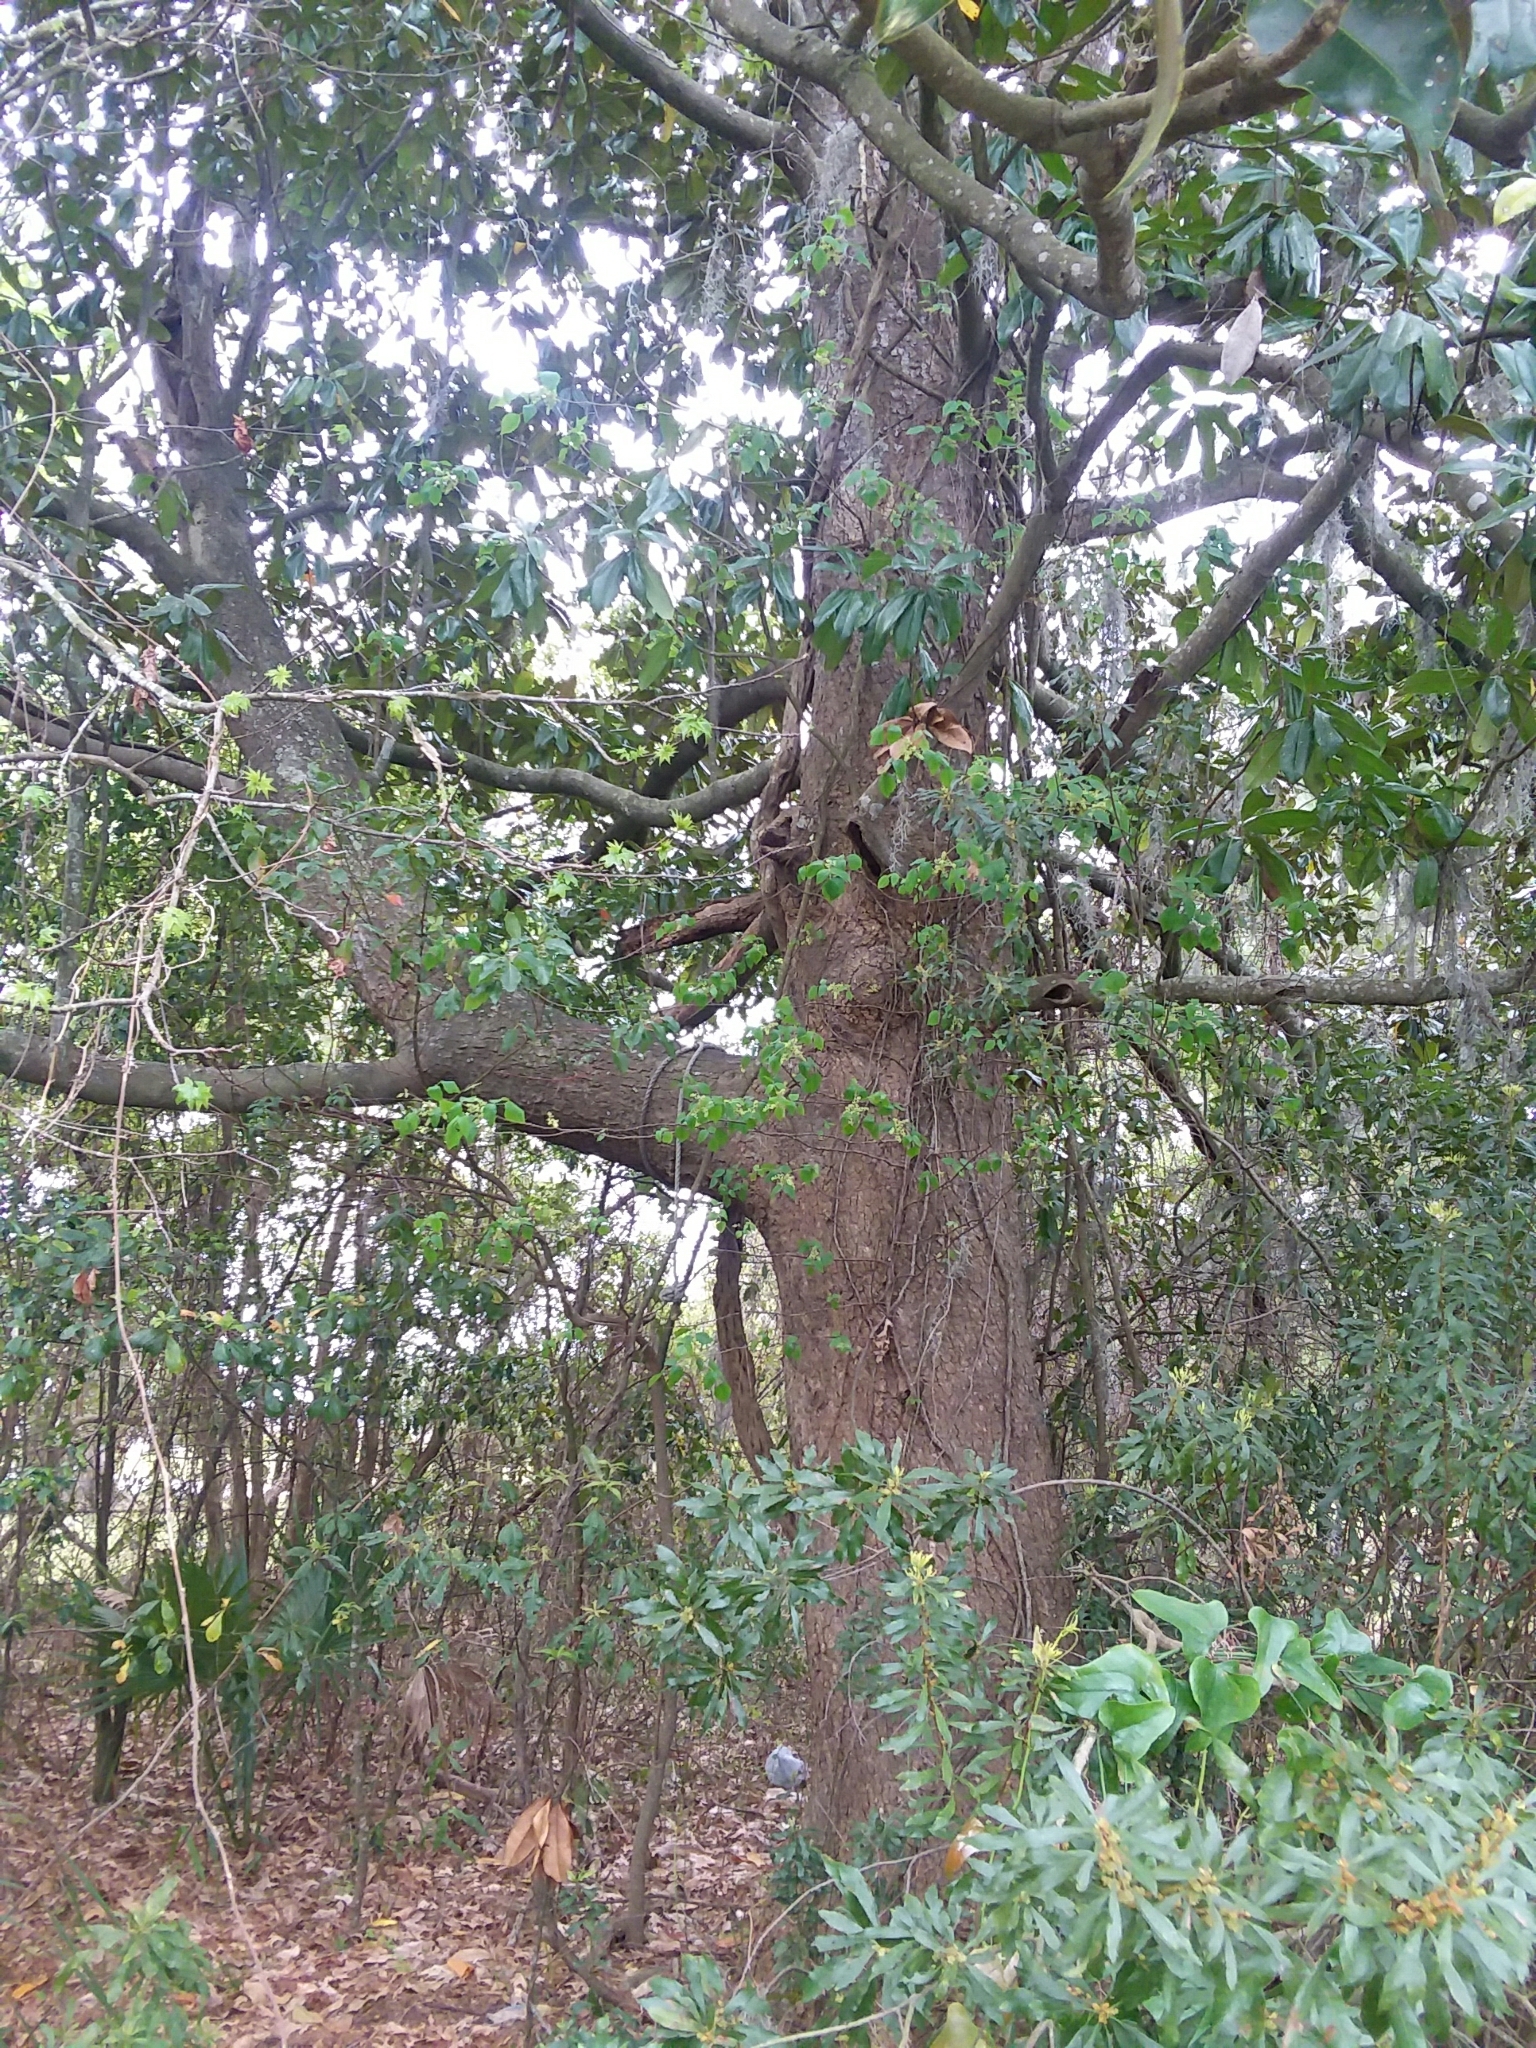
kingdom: Plantae
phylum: Tracheophyta
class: Magnoliopsida
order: Magnoliales
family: Magnoliaceae
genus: Magnolia
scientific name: Magnolia grandiflora
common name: Southern magnolia
